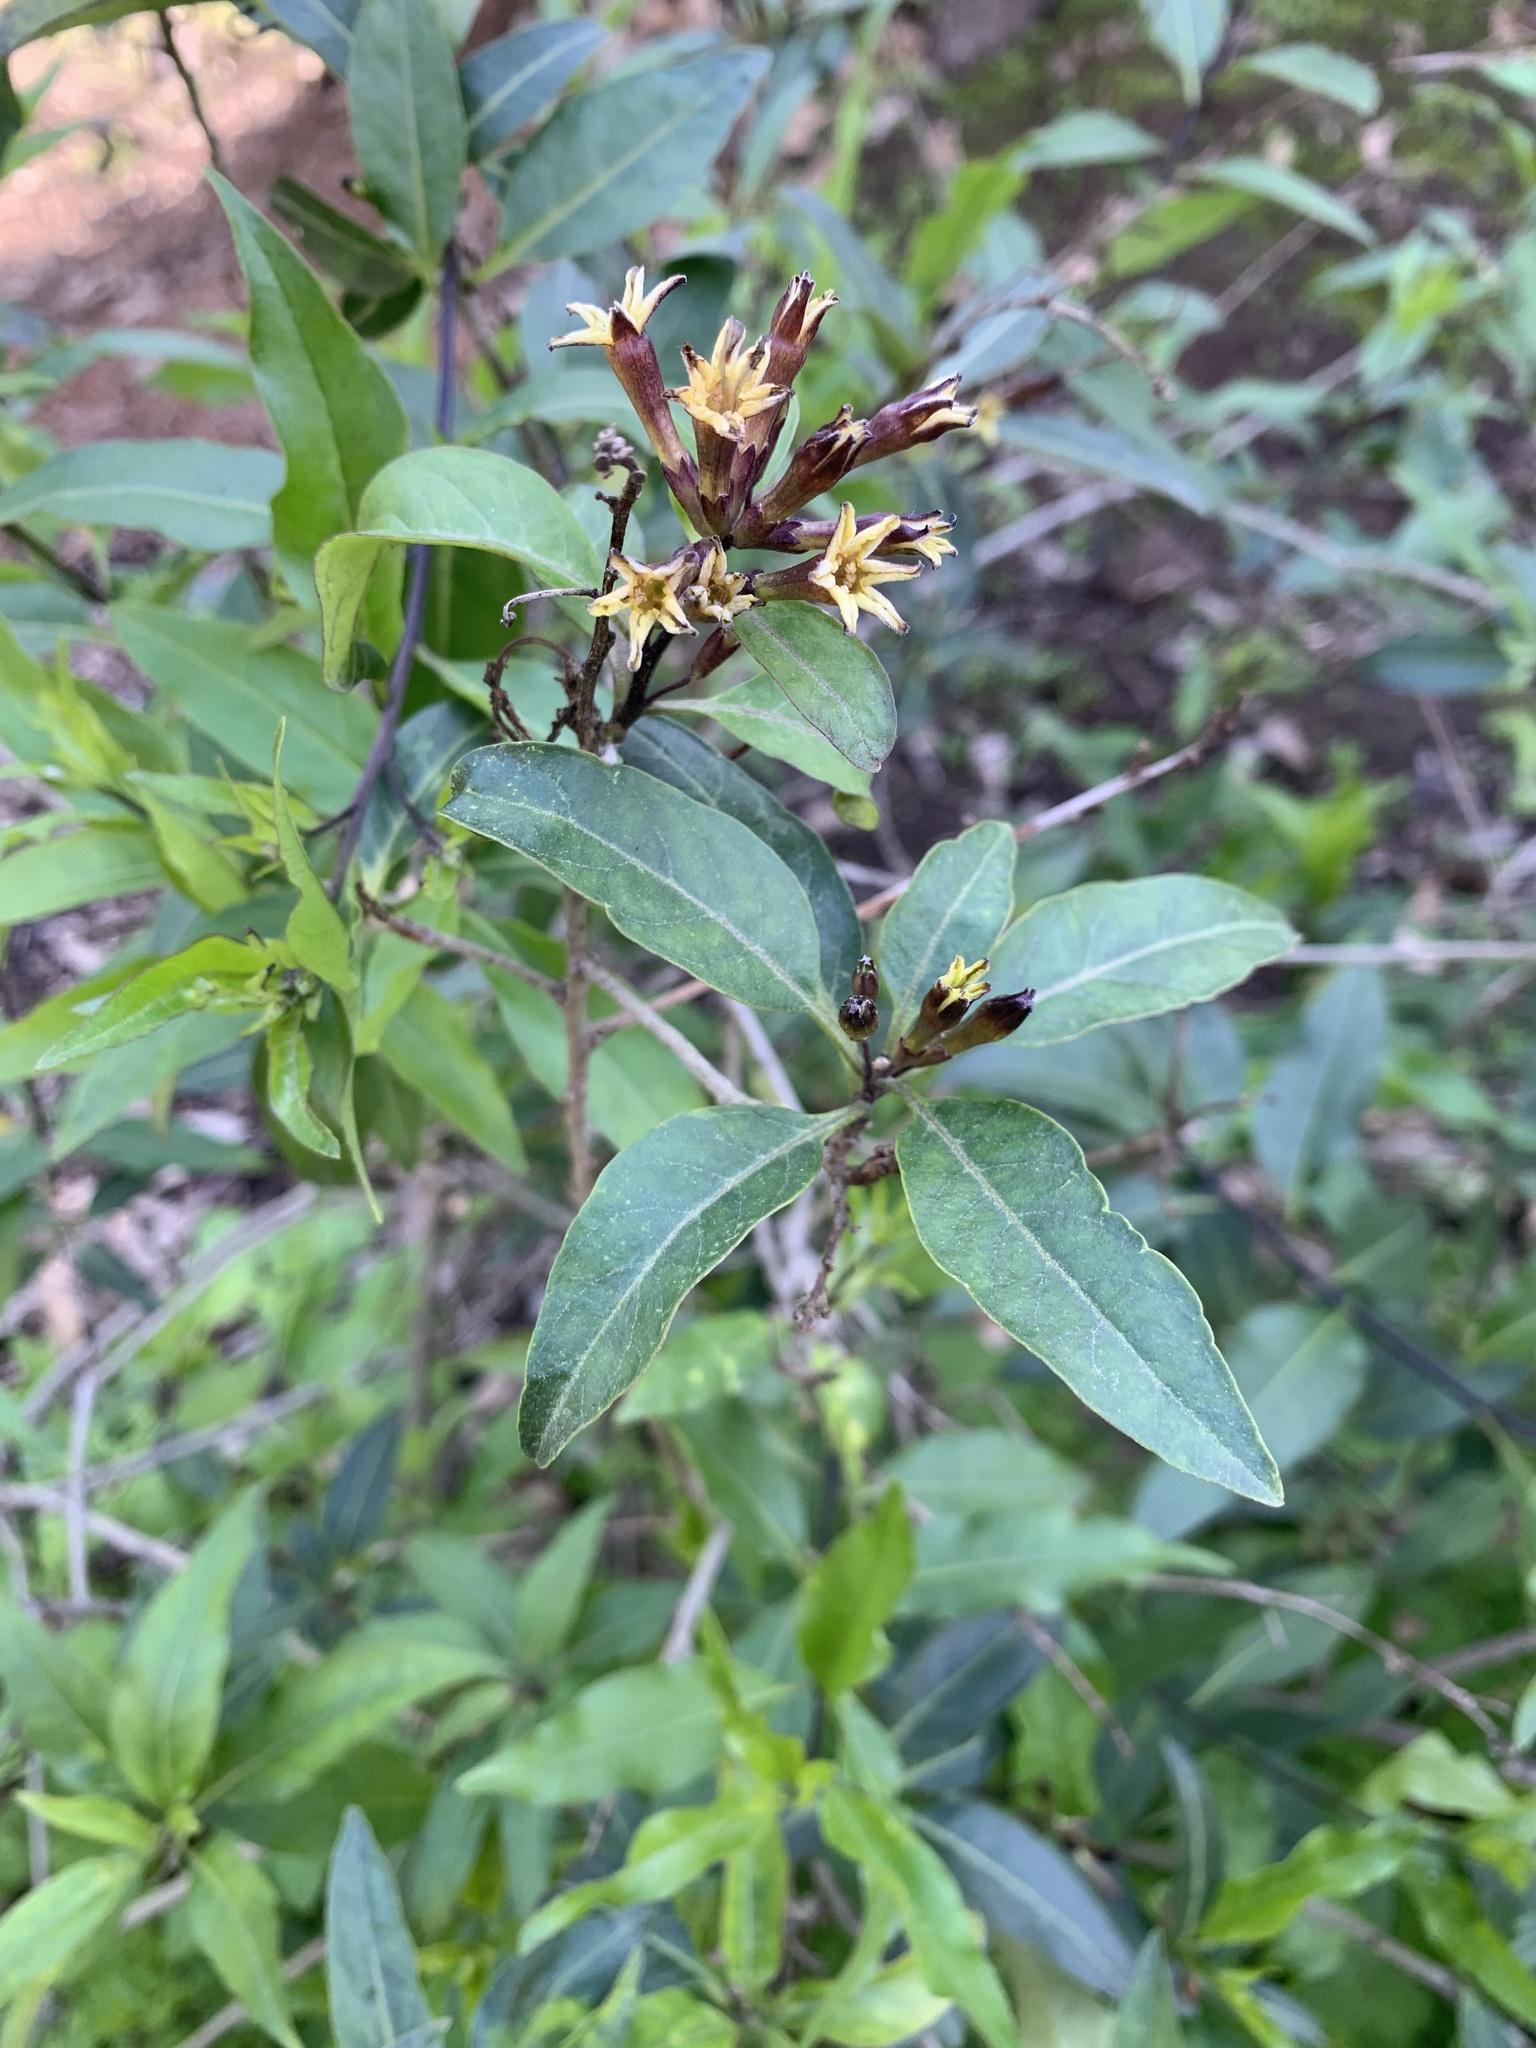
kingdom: Plantae
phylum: Tracheophyta
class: Magnoliopsida
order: Solanales
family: Solanaceae
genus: Cestrum
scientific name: Cestrum parqui
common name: Chilean cestrum
